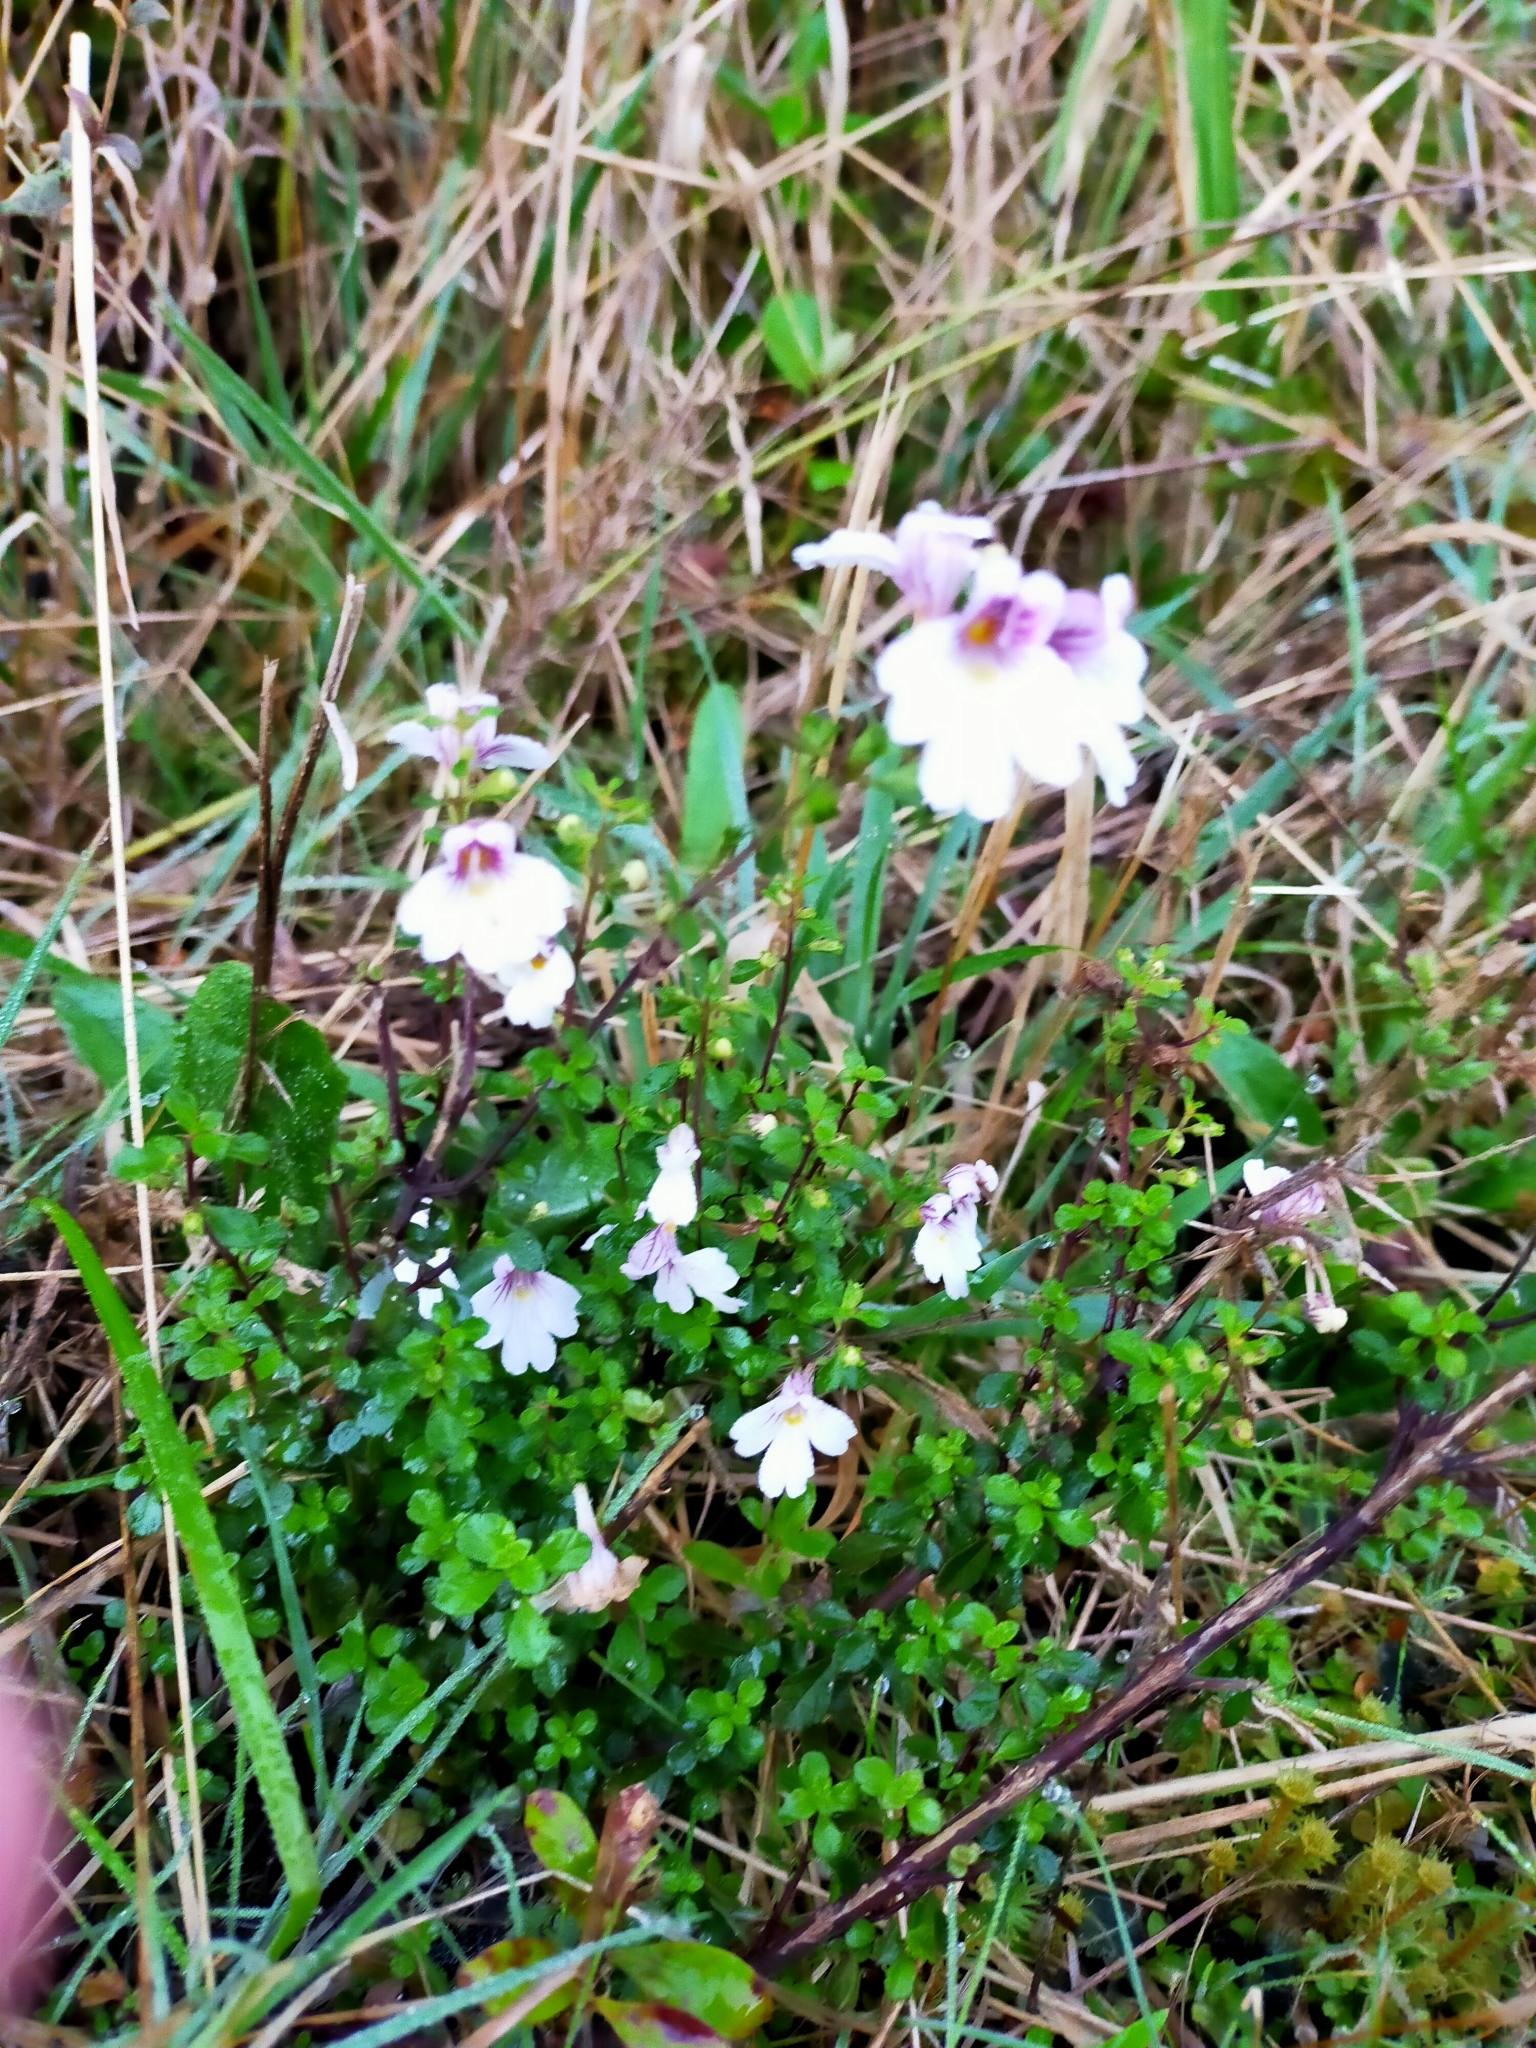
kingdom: Plantae
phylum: Tracheophyta
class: Magnoliopsida
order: Lamiales
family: Orobanchaceae
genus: Euphrasia
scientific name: Euphrasia cuneata
